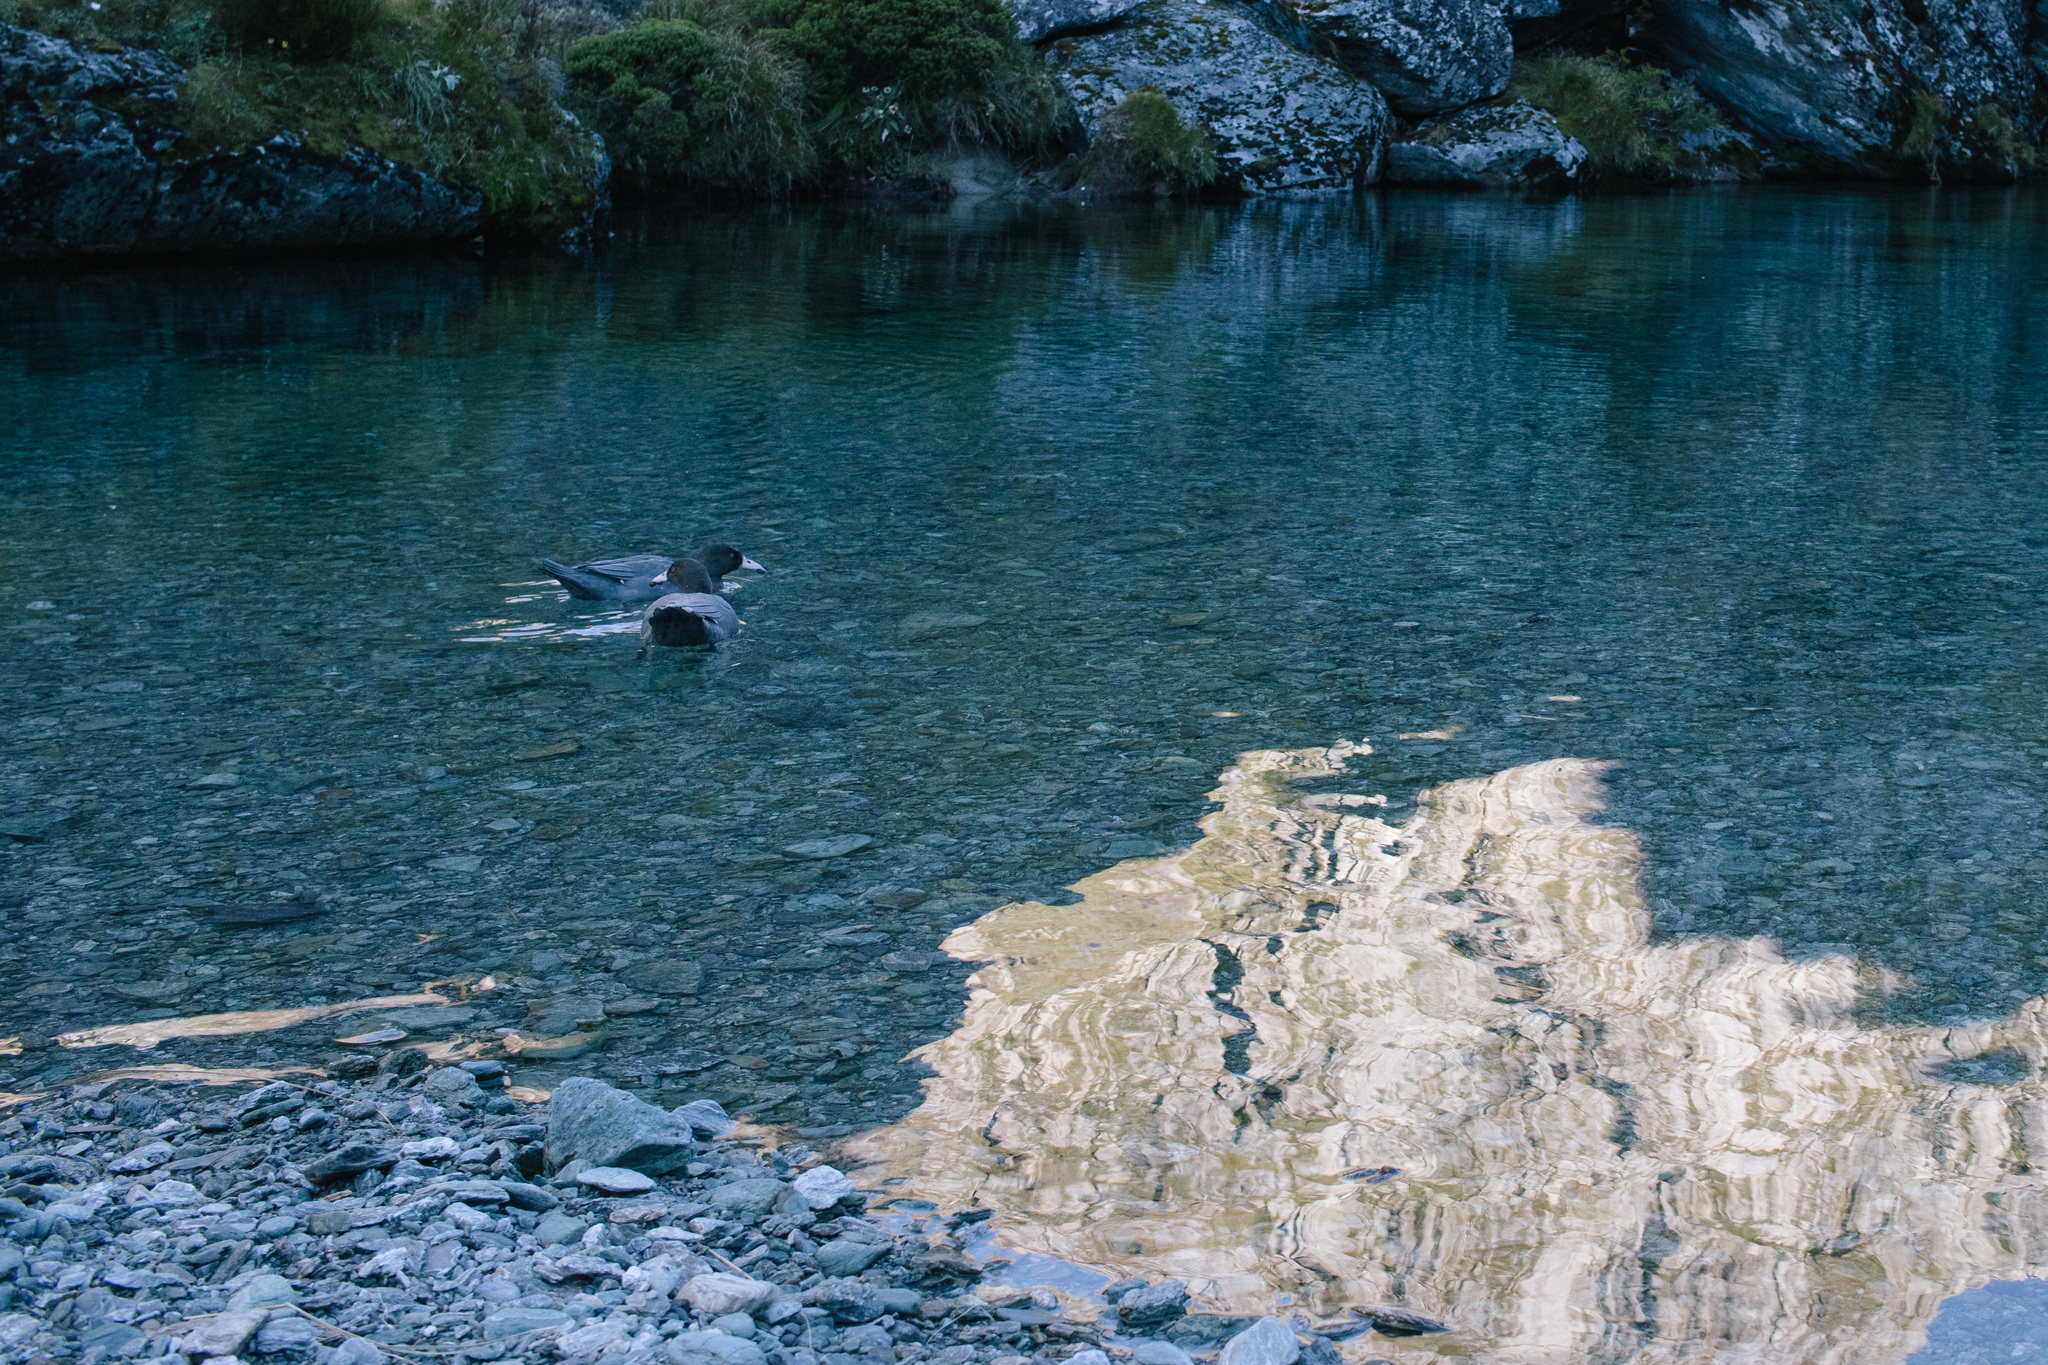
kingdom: Animalia
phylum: Chordata
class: Aves
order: Anseriformes
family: Anatidae
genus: Hymenolaimus
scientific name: Hymenolaimus malacorhynchos
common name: Blue duck
